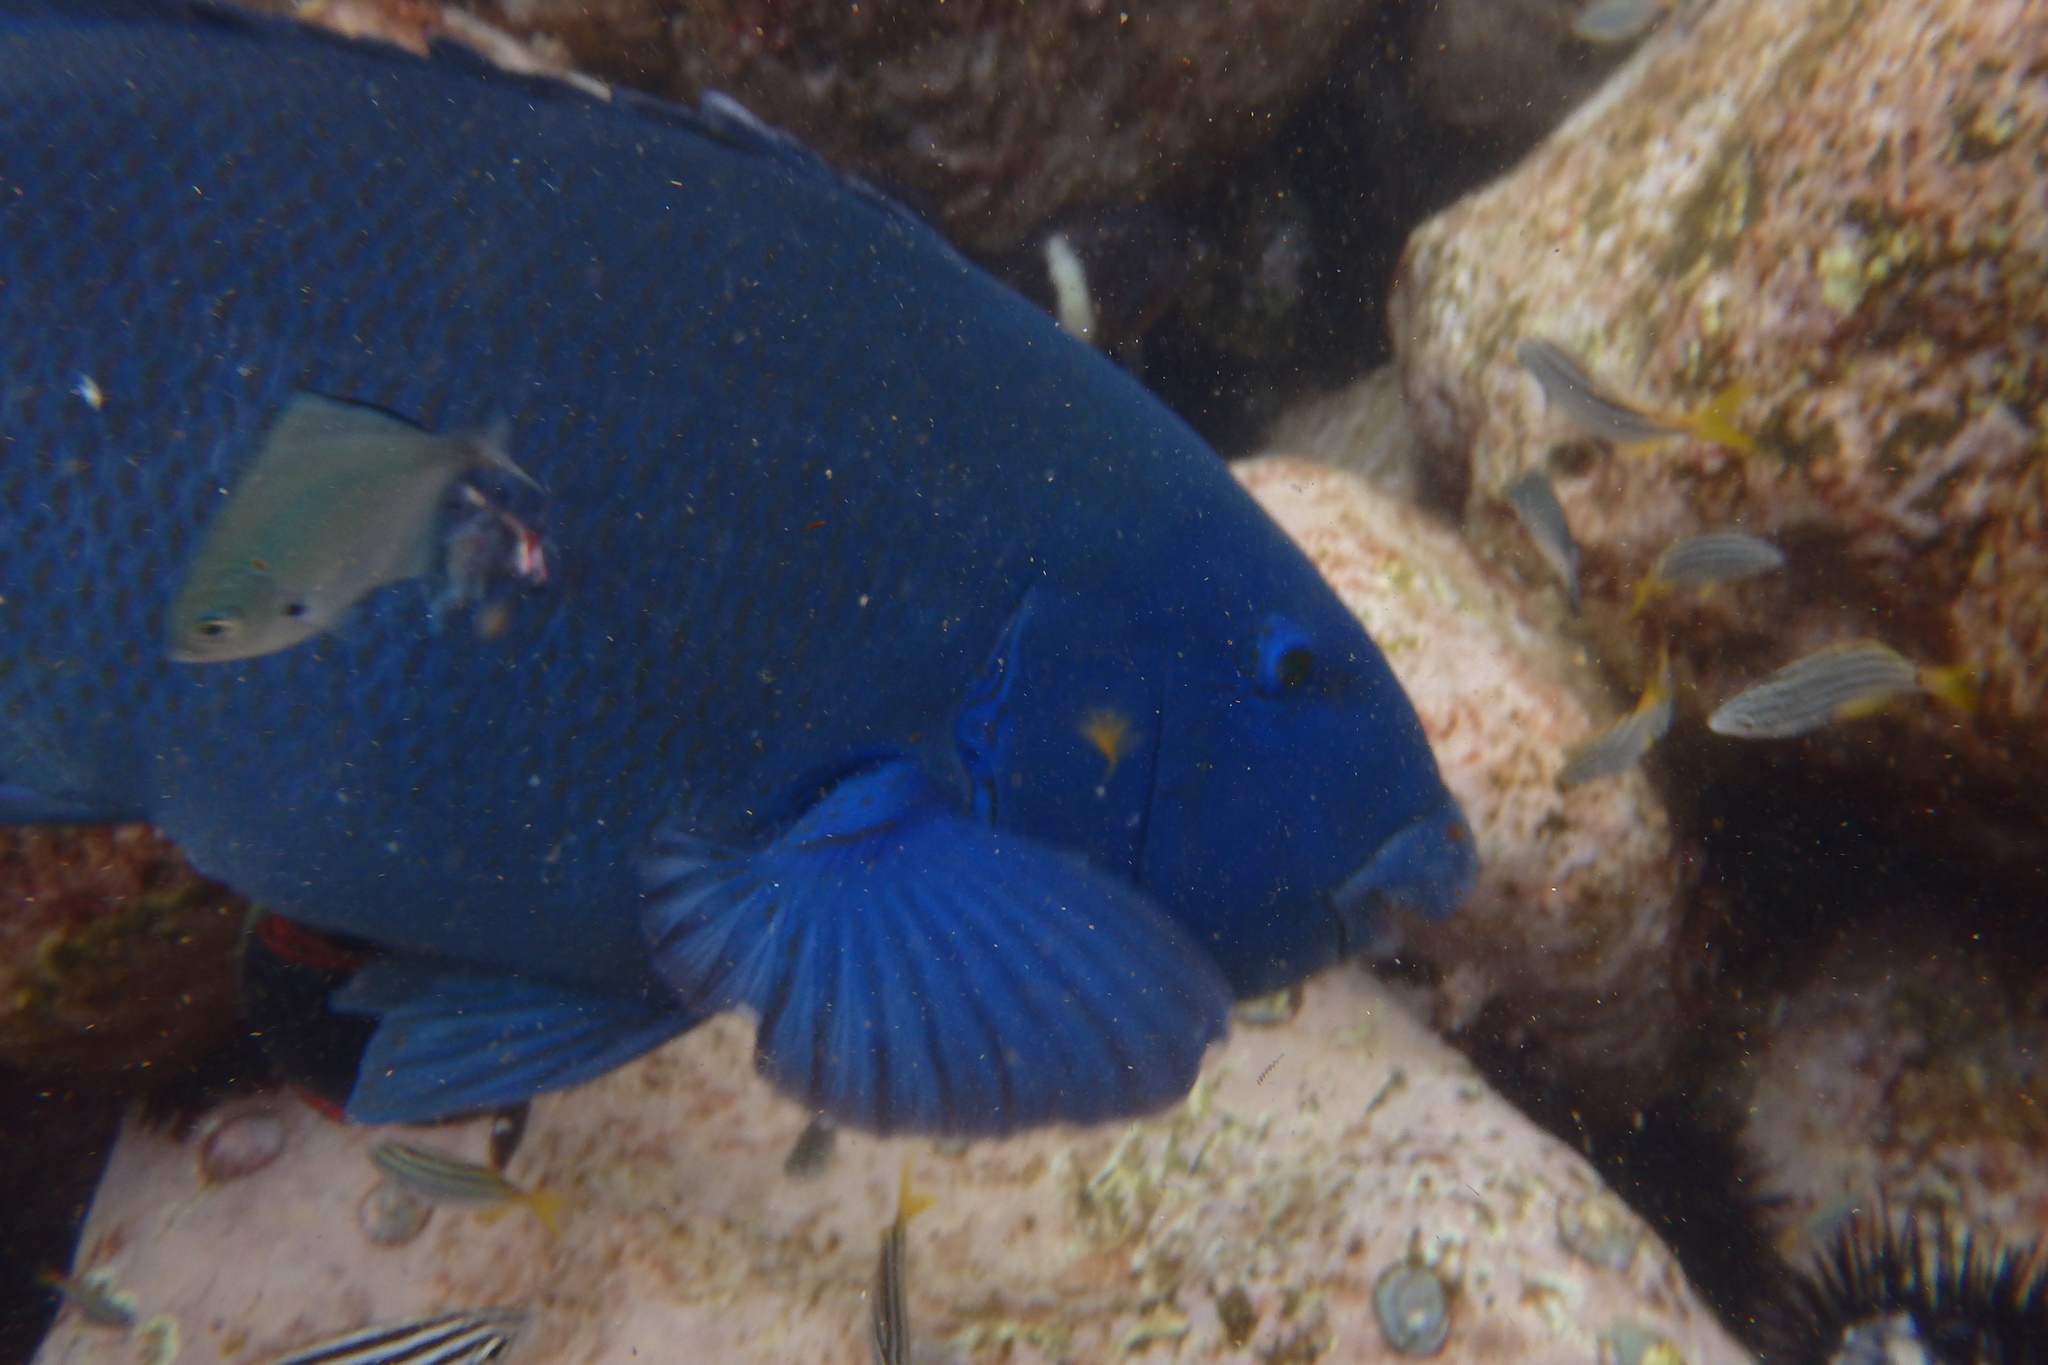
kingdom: Animalia
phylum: Chordata
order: Perciformes
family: Kyphosidae
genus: Scorpis
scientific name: Scorpis lineolata
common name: Sweep
